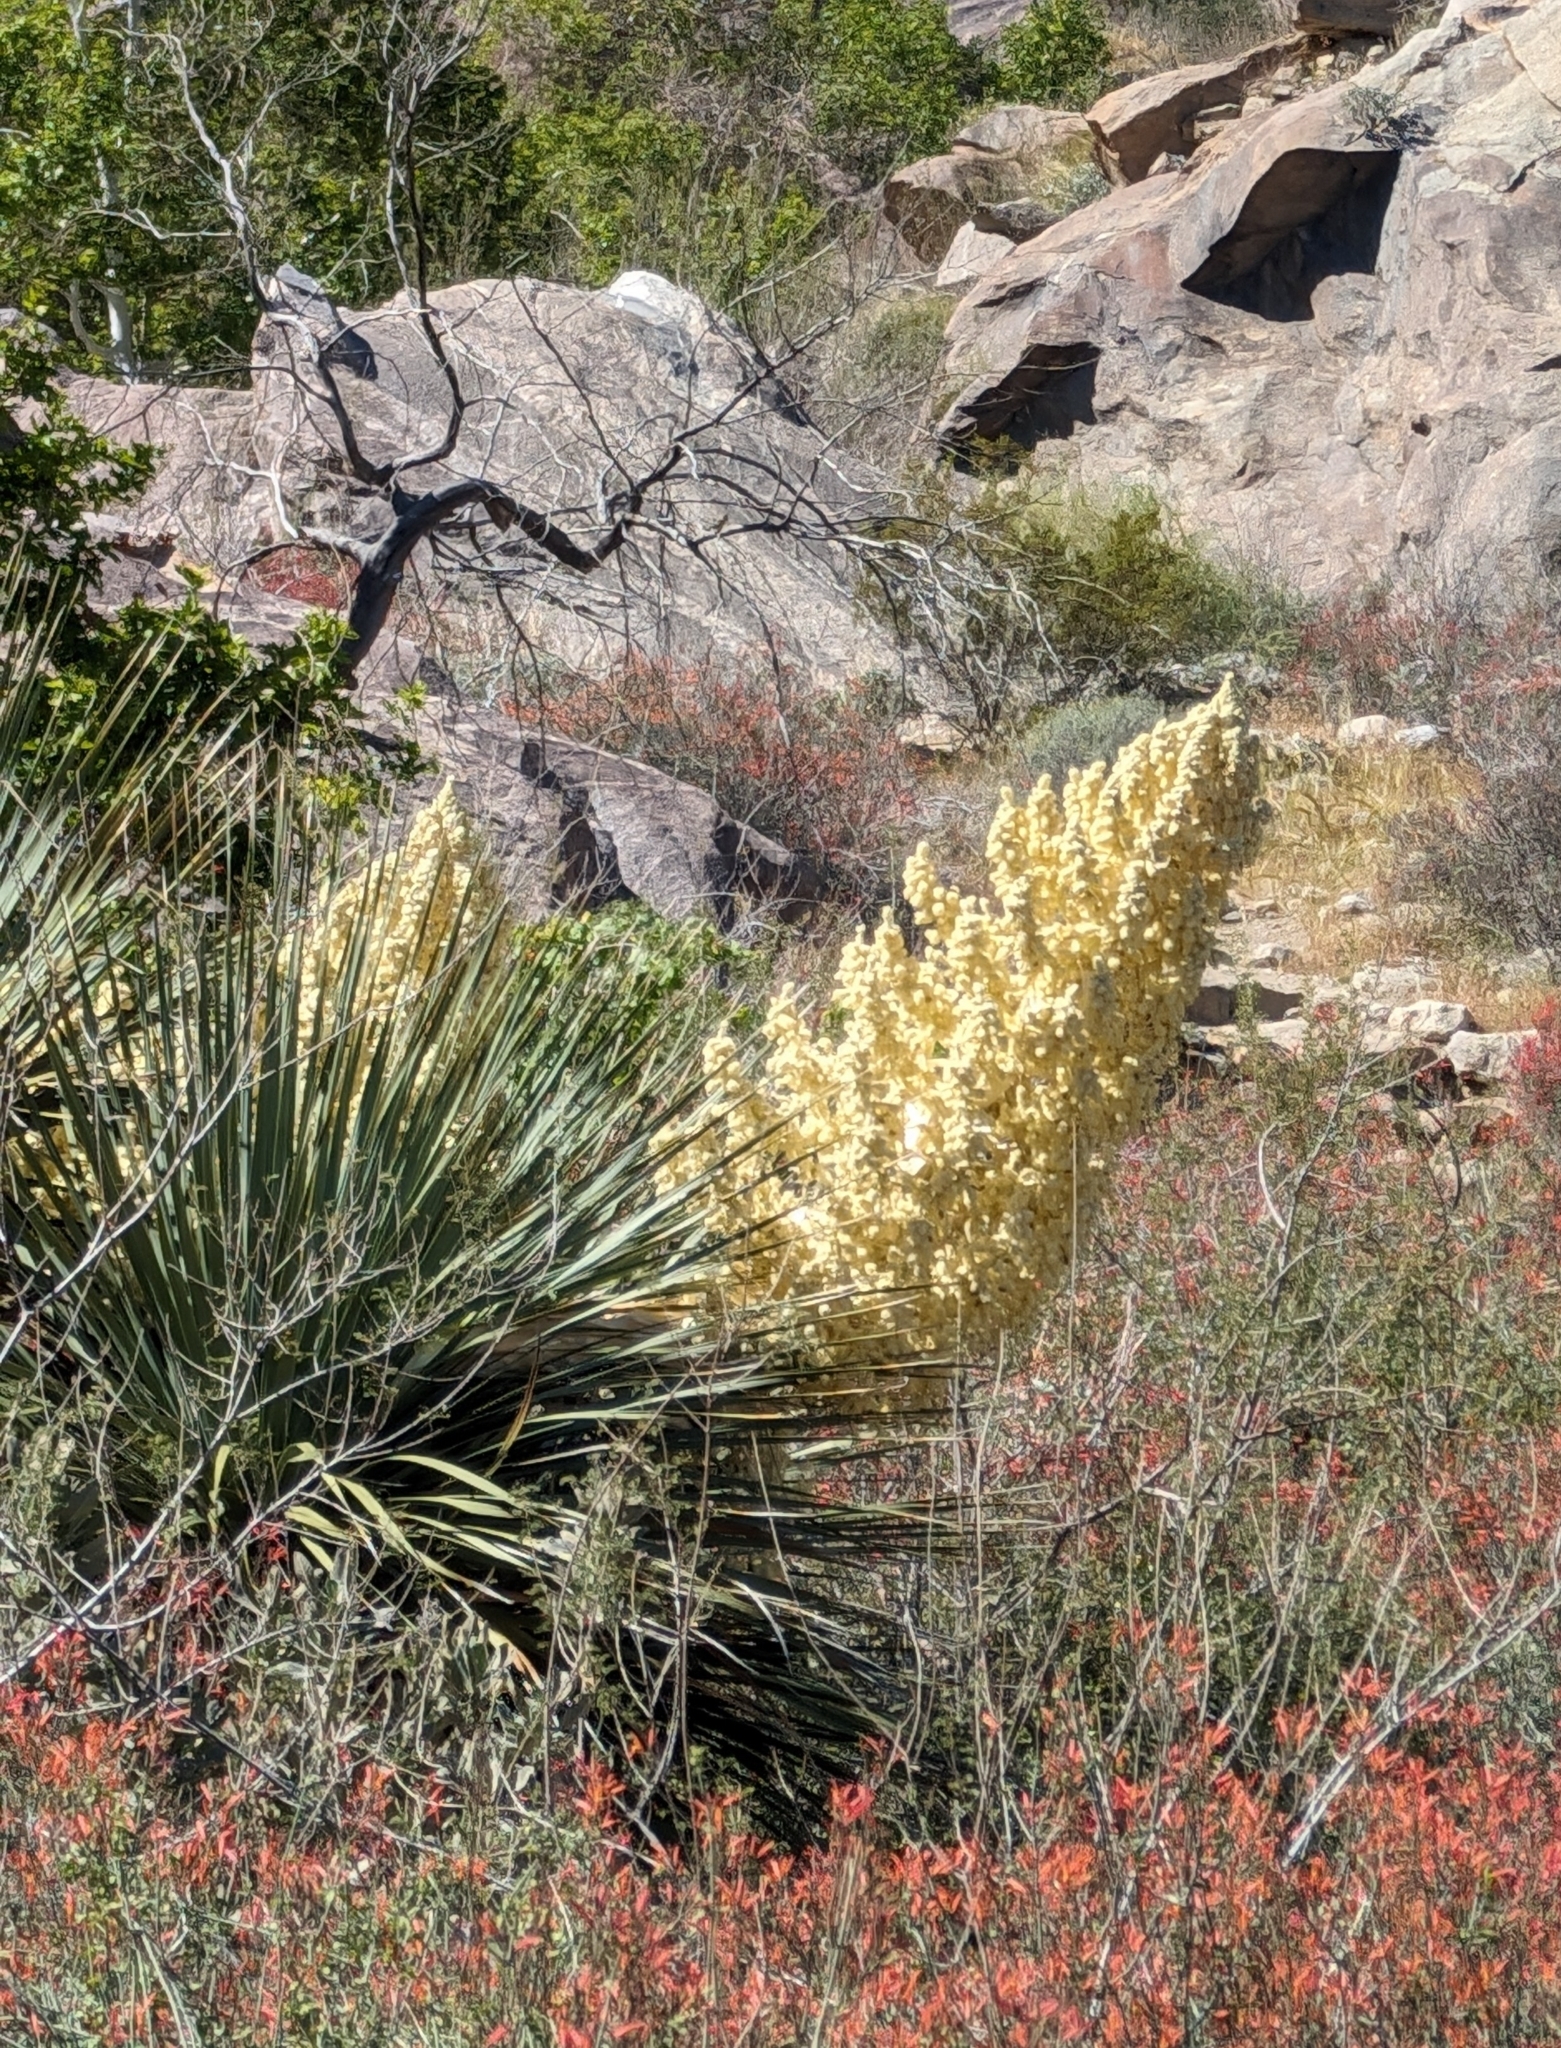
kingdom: Plantae
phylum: Tracheophyta
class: Liliopsida
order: Asparagales
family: Asparagaceae
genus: Nolina
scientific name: Nolina parryi
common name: Parry nolina
